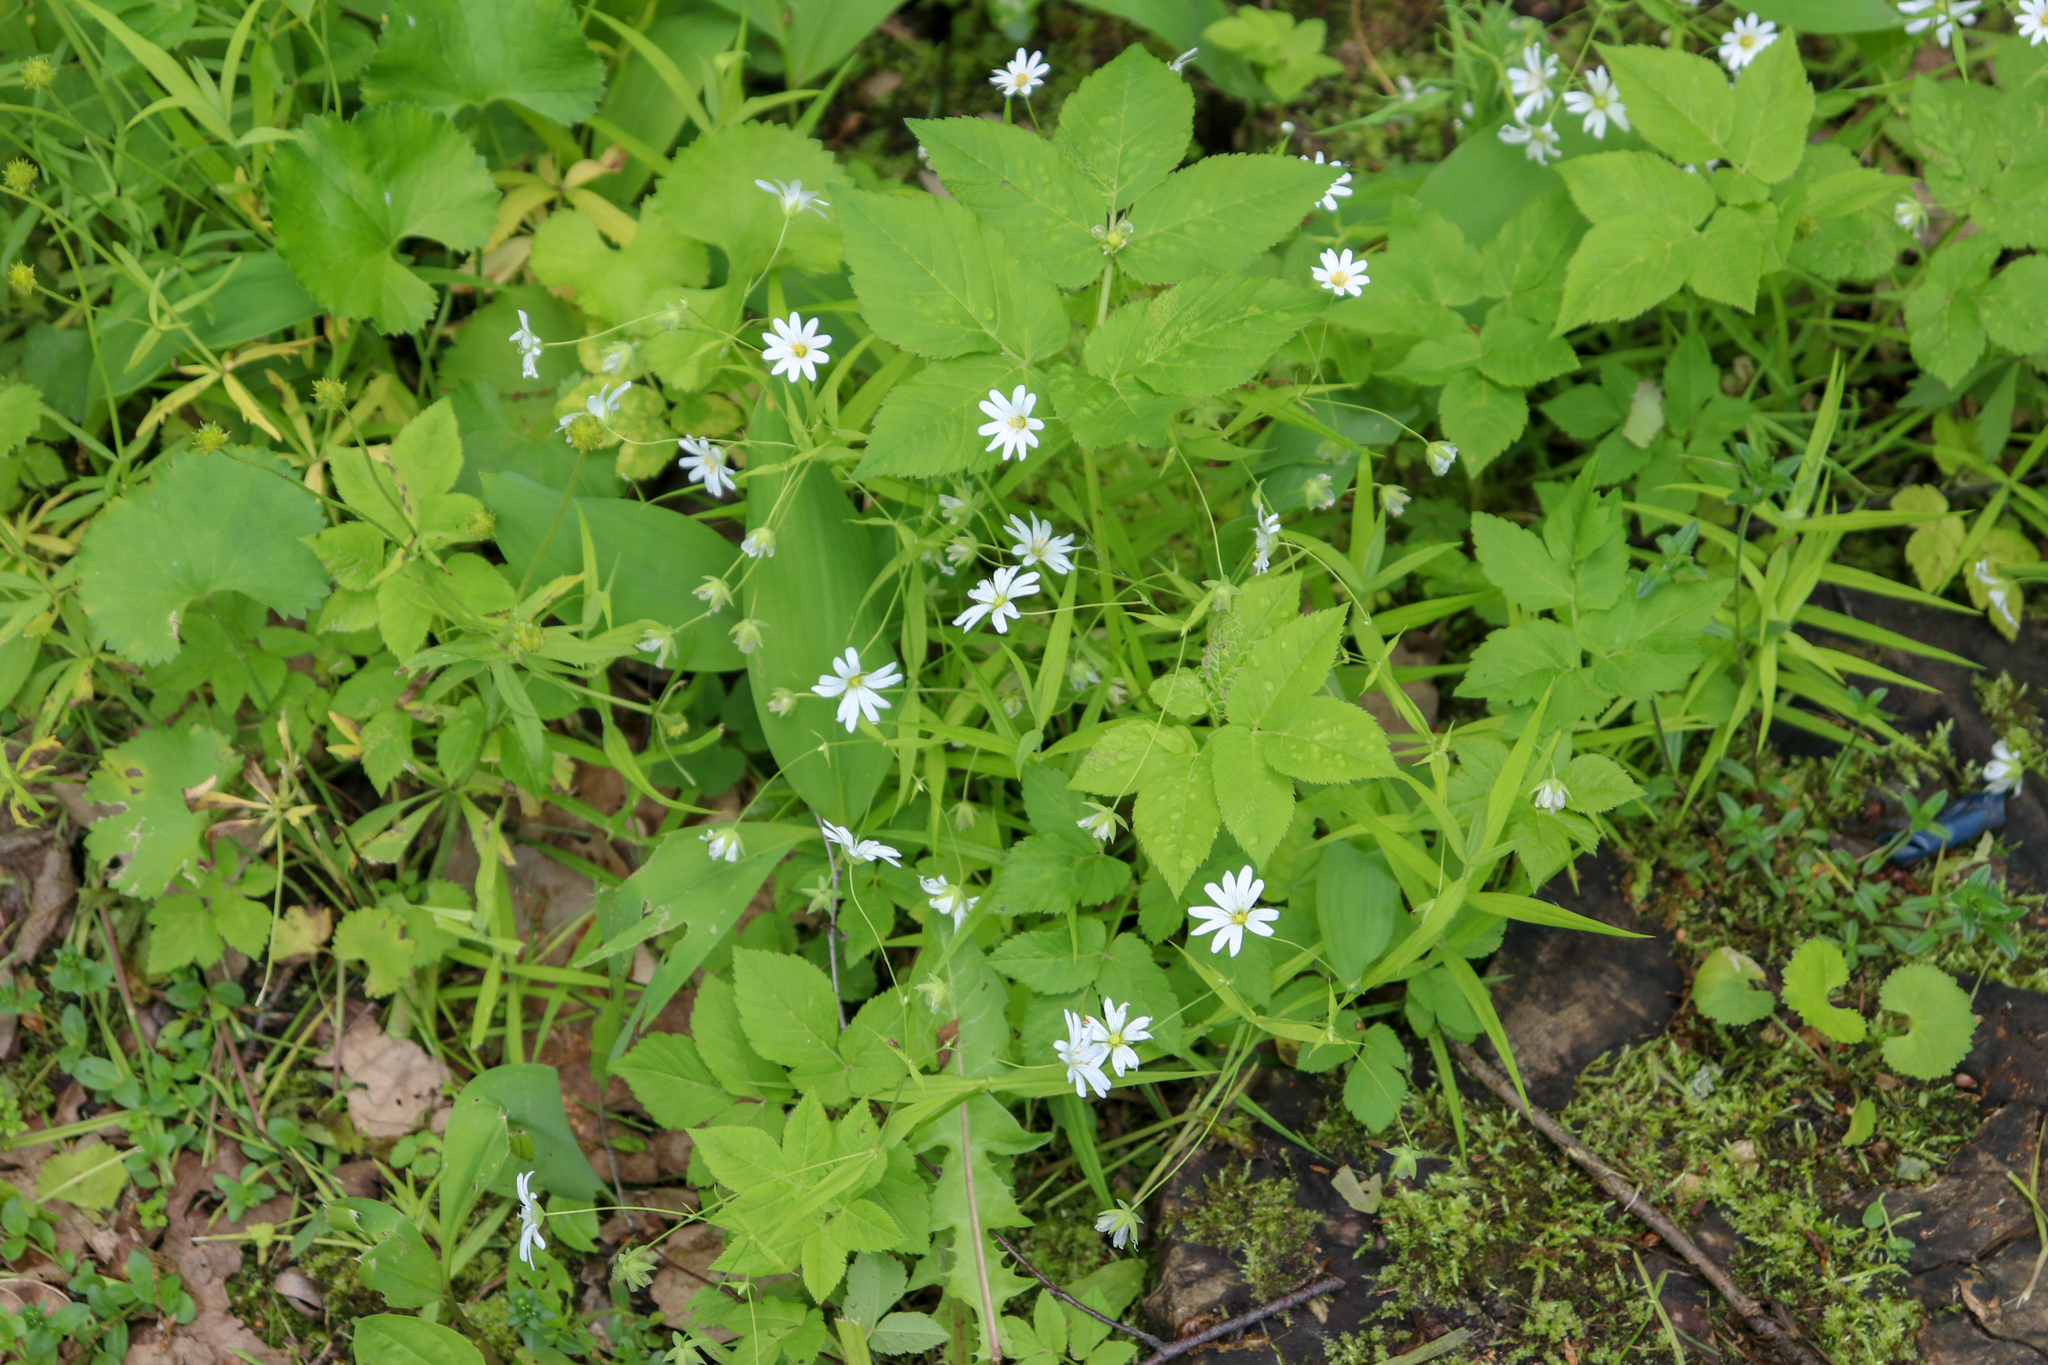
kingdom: Plantae
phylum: Tracheophyta
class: Magnoliopsida
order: Caryophyllales
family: Caryophyllaceae
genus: Rabelera
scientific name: Rabelera holostea
